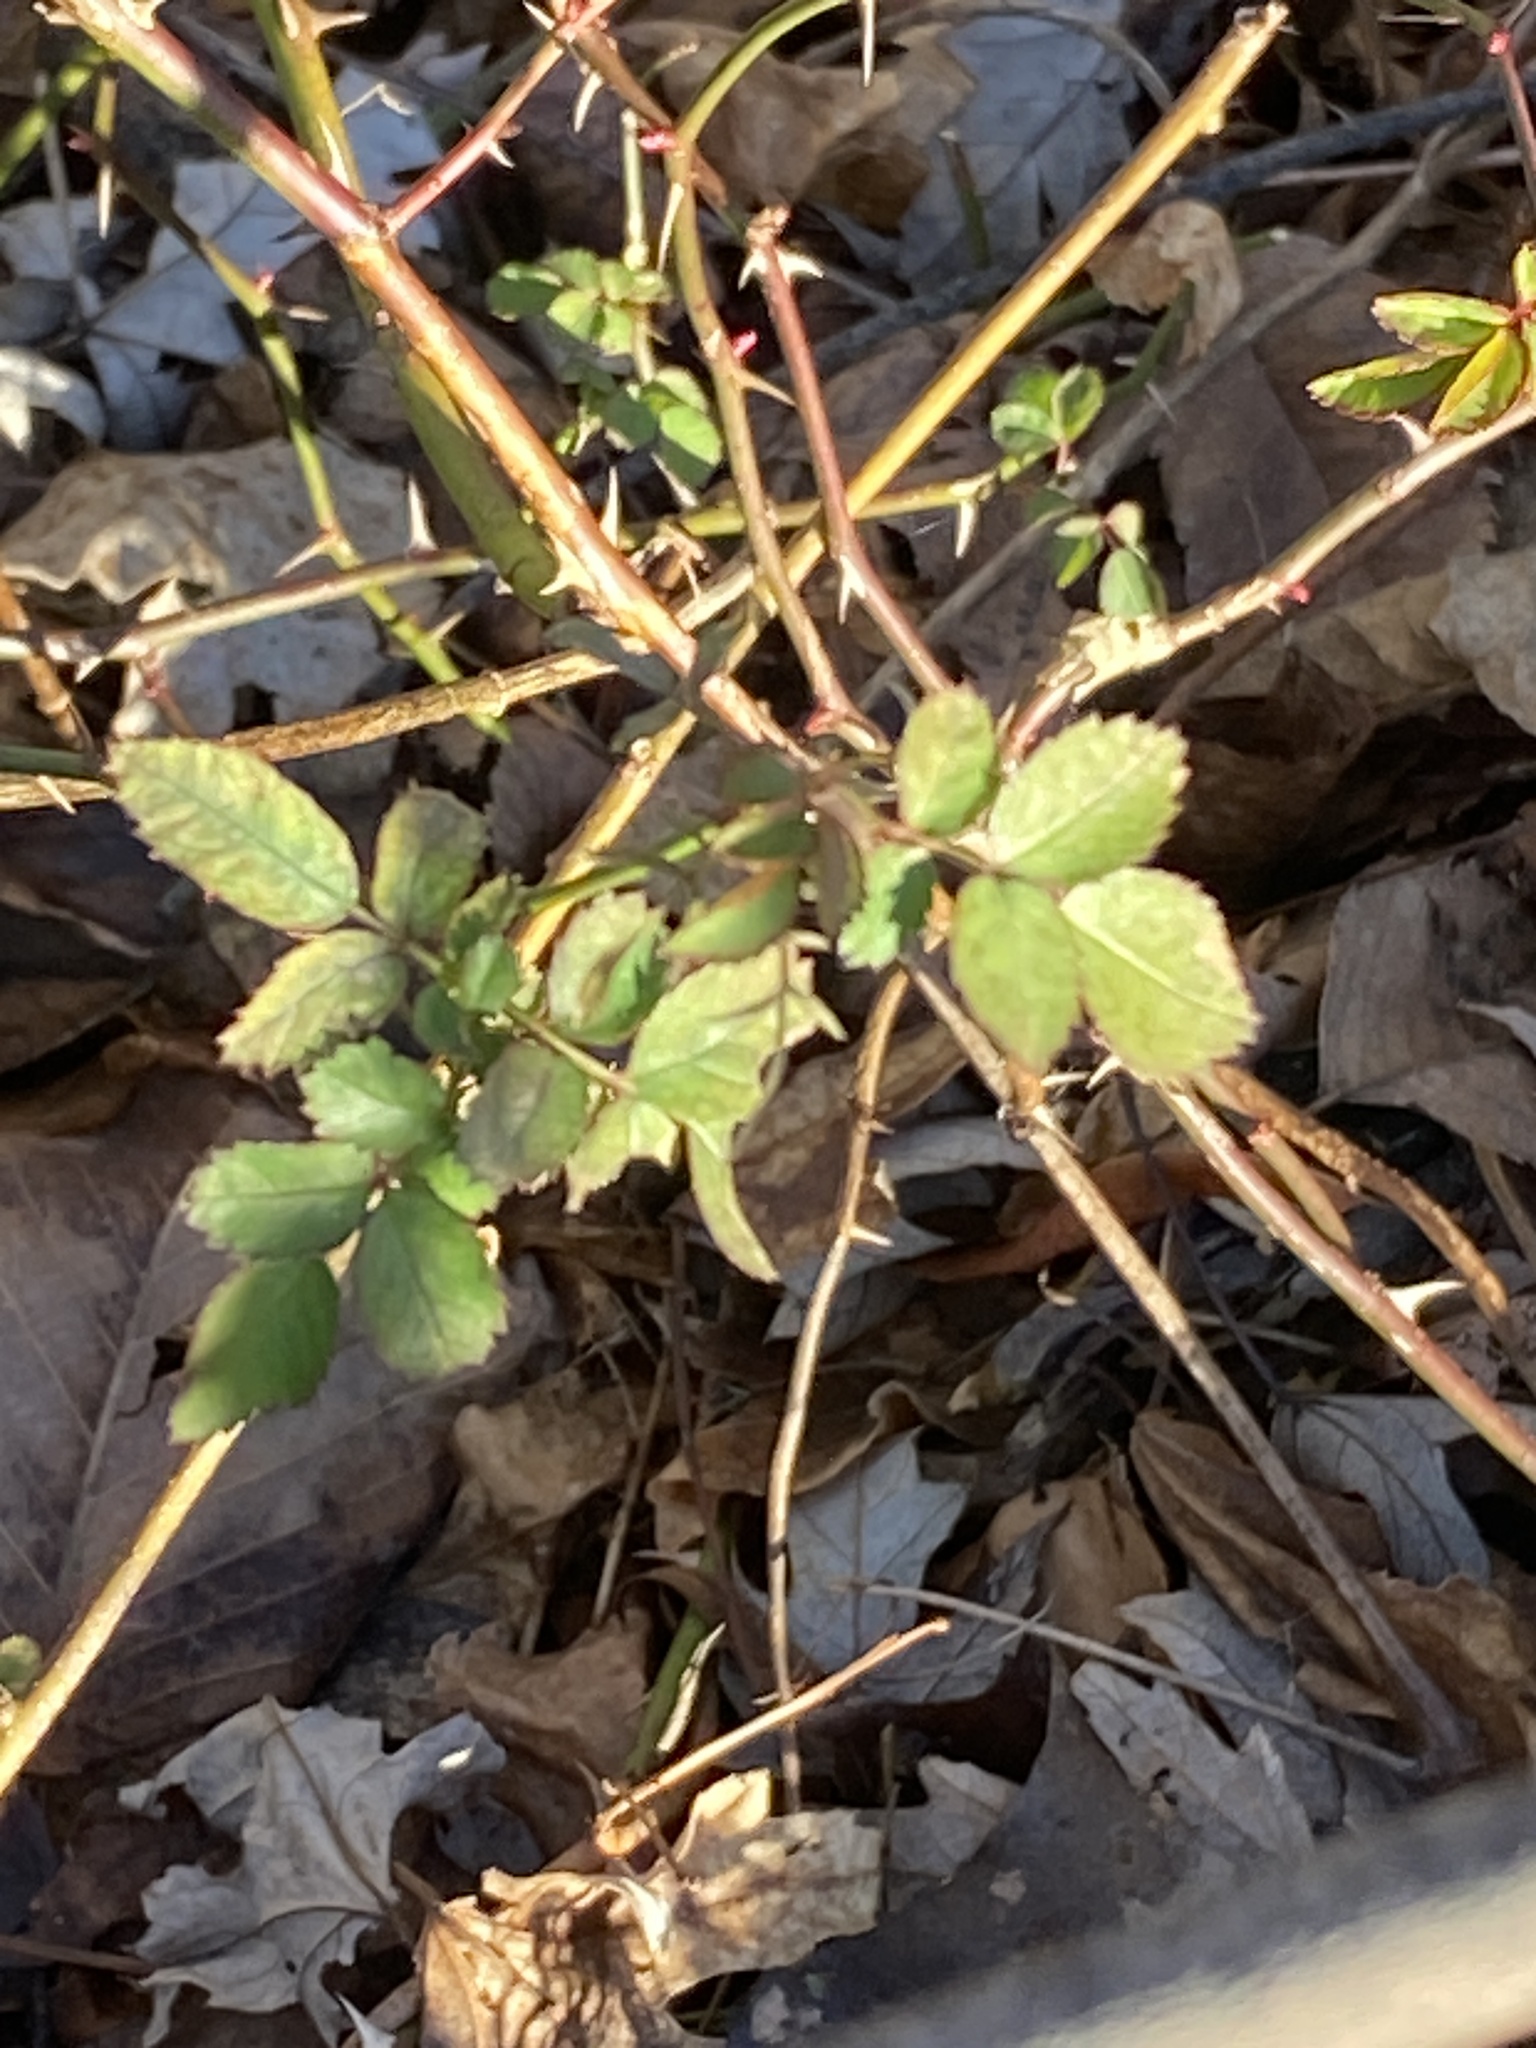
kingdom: Plantae
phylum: Tracheophyta
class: Magnoliopsida
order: Rosales
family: Rosaceae
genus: Rosa
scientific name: Rosa multiflora
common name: Multiflora rose
